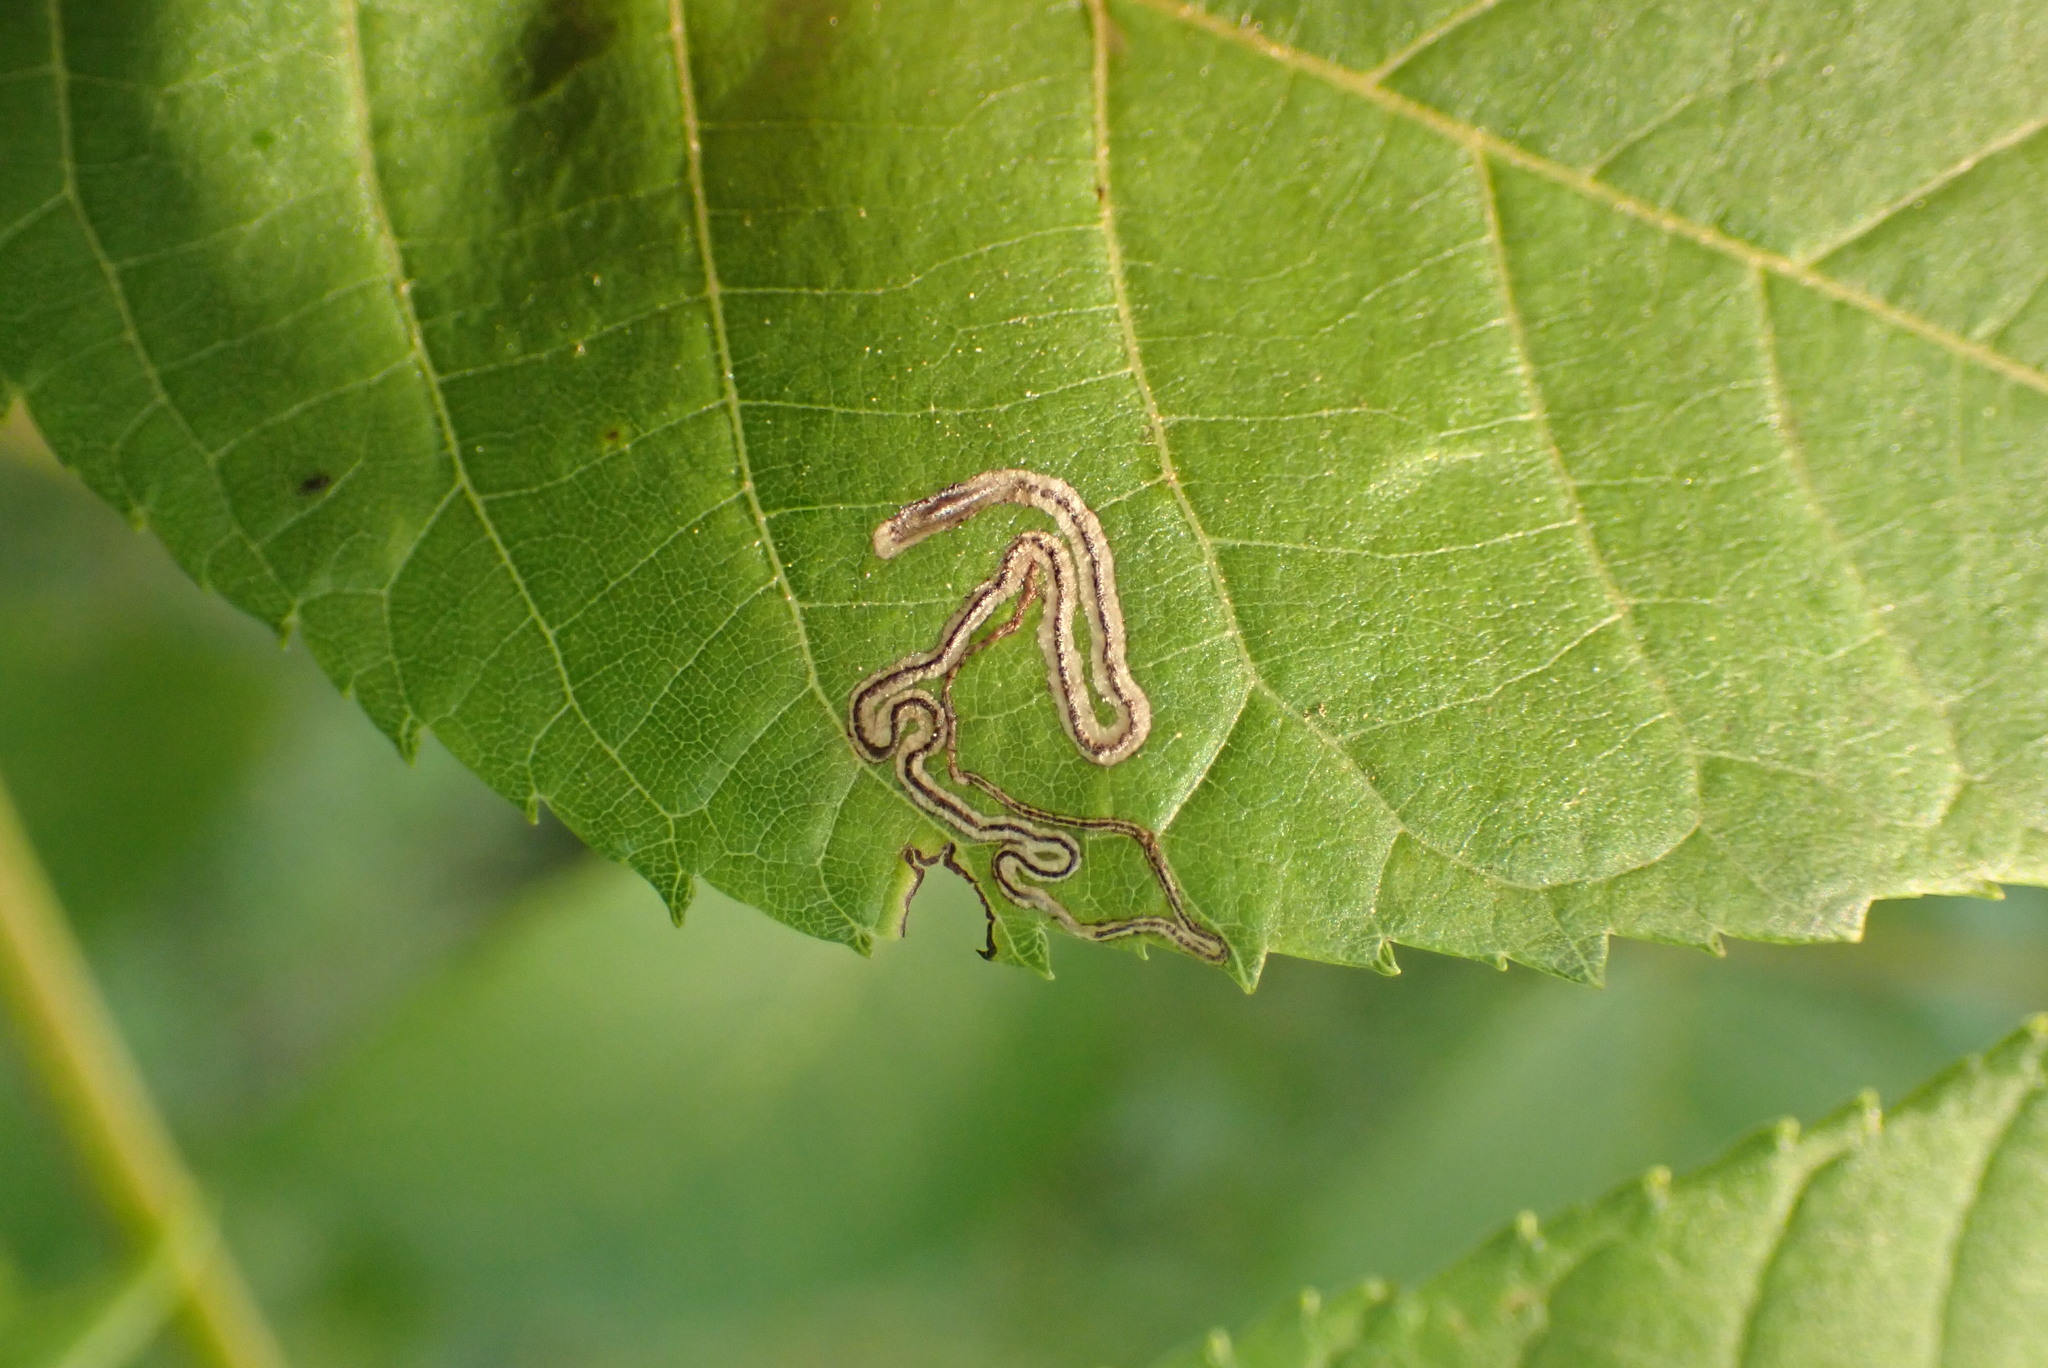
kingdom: Animalia
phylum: Arthropoda
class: Insecta
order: Lepidoptera
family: Nepticulidae
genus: Stigmella
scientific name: Stigmella juglandifoliella
